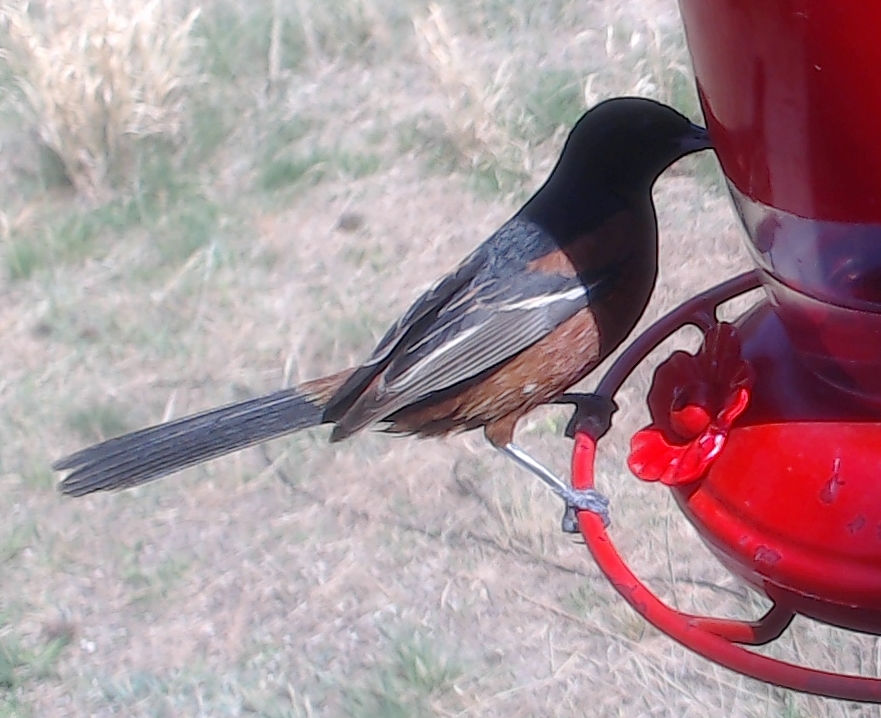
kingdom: Animalia
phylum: Chordata
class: Aves
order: Passeriformes
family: Icteridae
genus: Icterus
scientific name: Icterus spurius
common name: Orchard oriole
